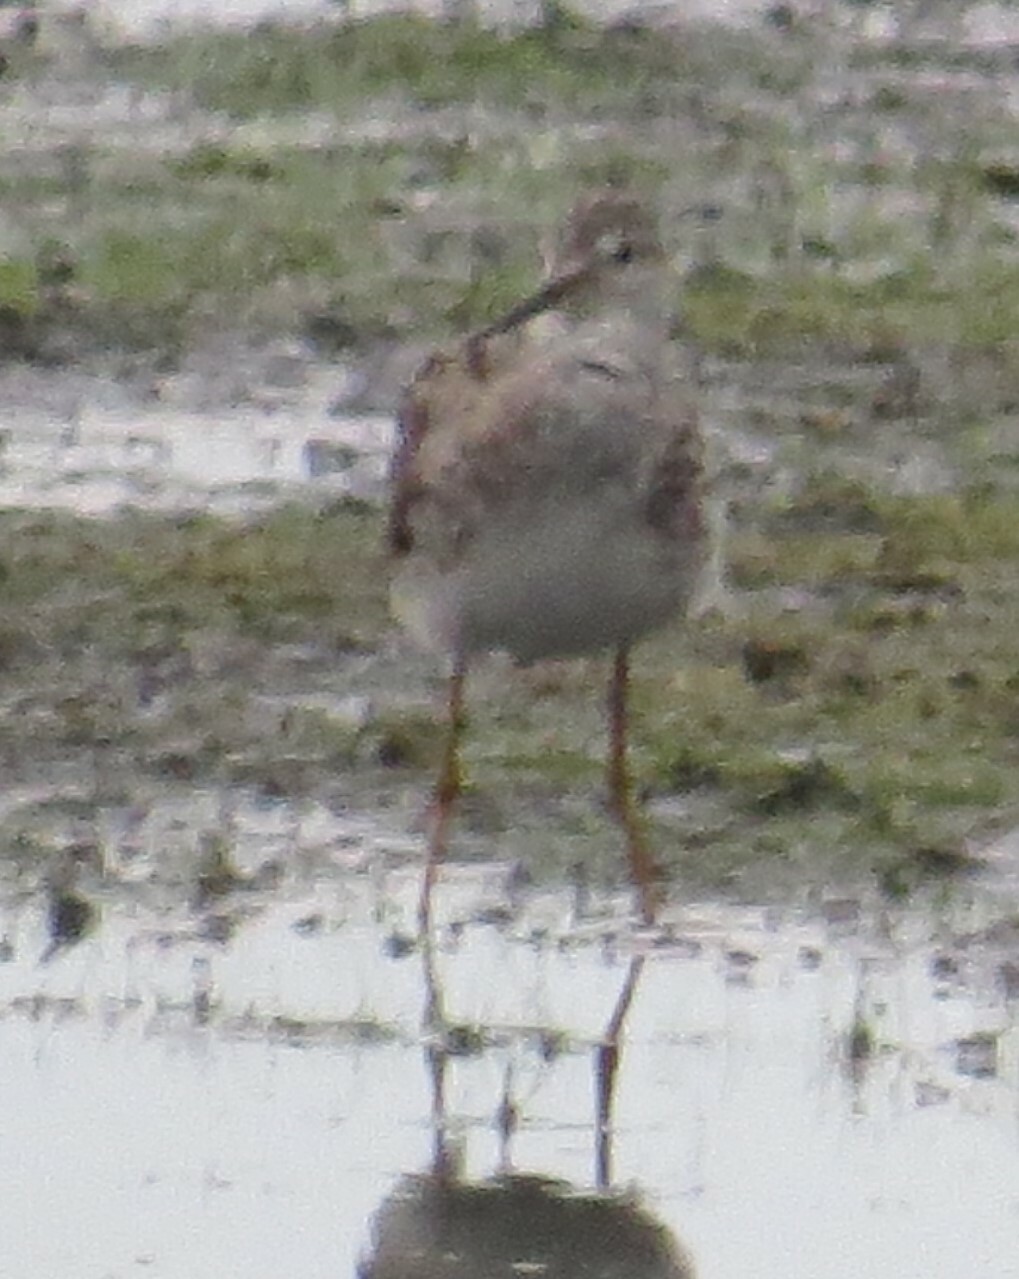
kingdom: Animalia
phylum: Chordata
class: Aves
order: Charadriiformes
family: Scolopacidae
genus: Tringa
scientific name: Tringa melanoleuca
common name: Greater yellowlegs
